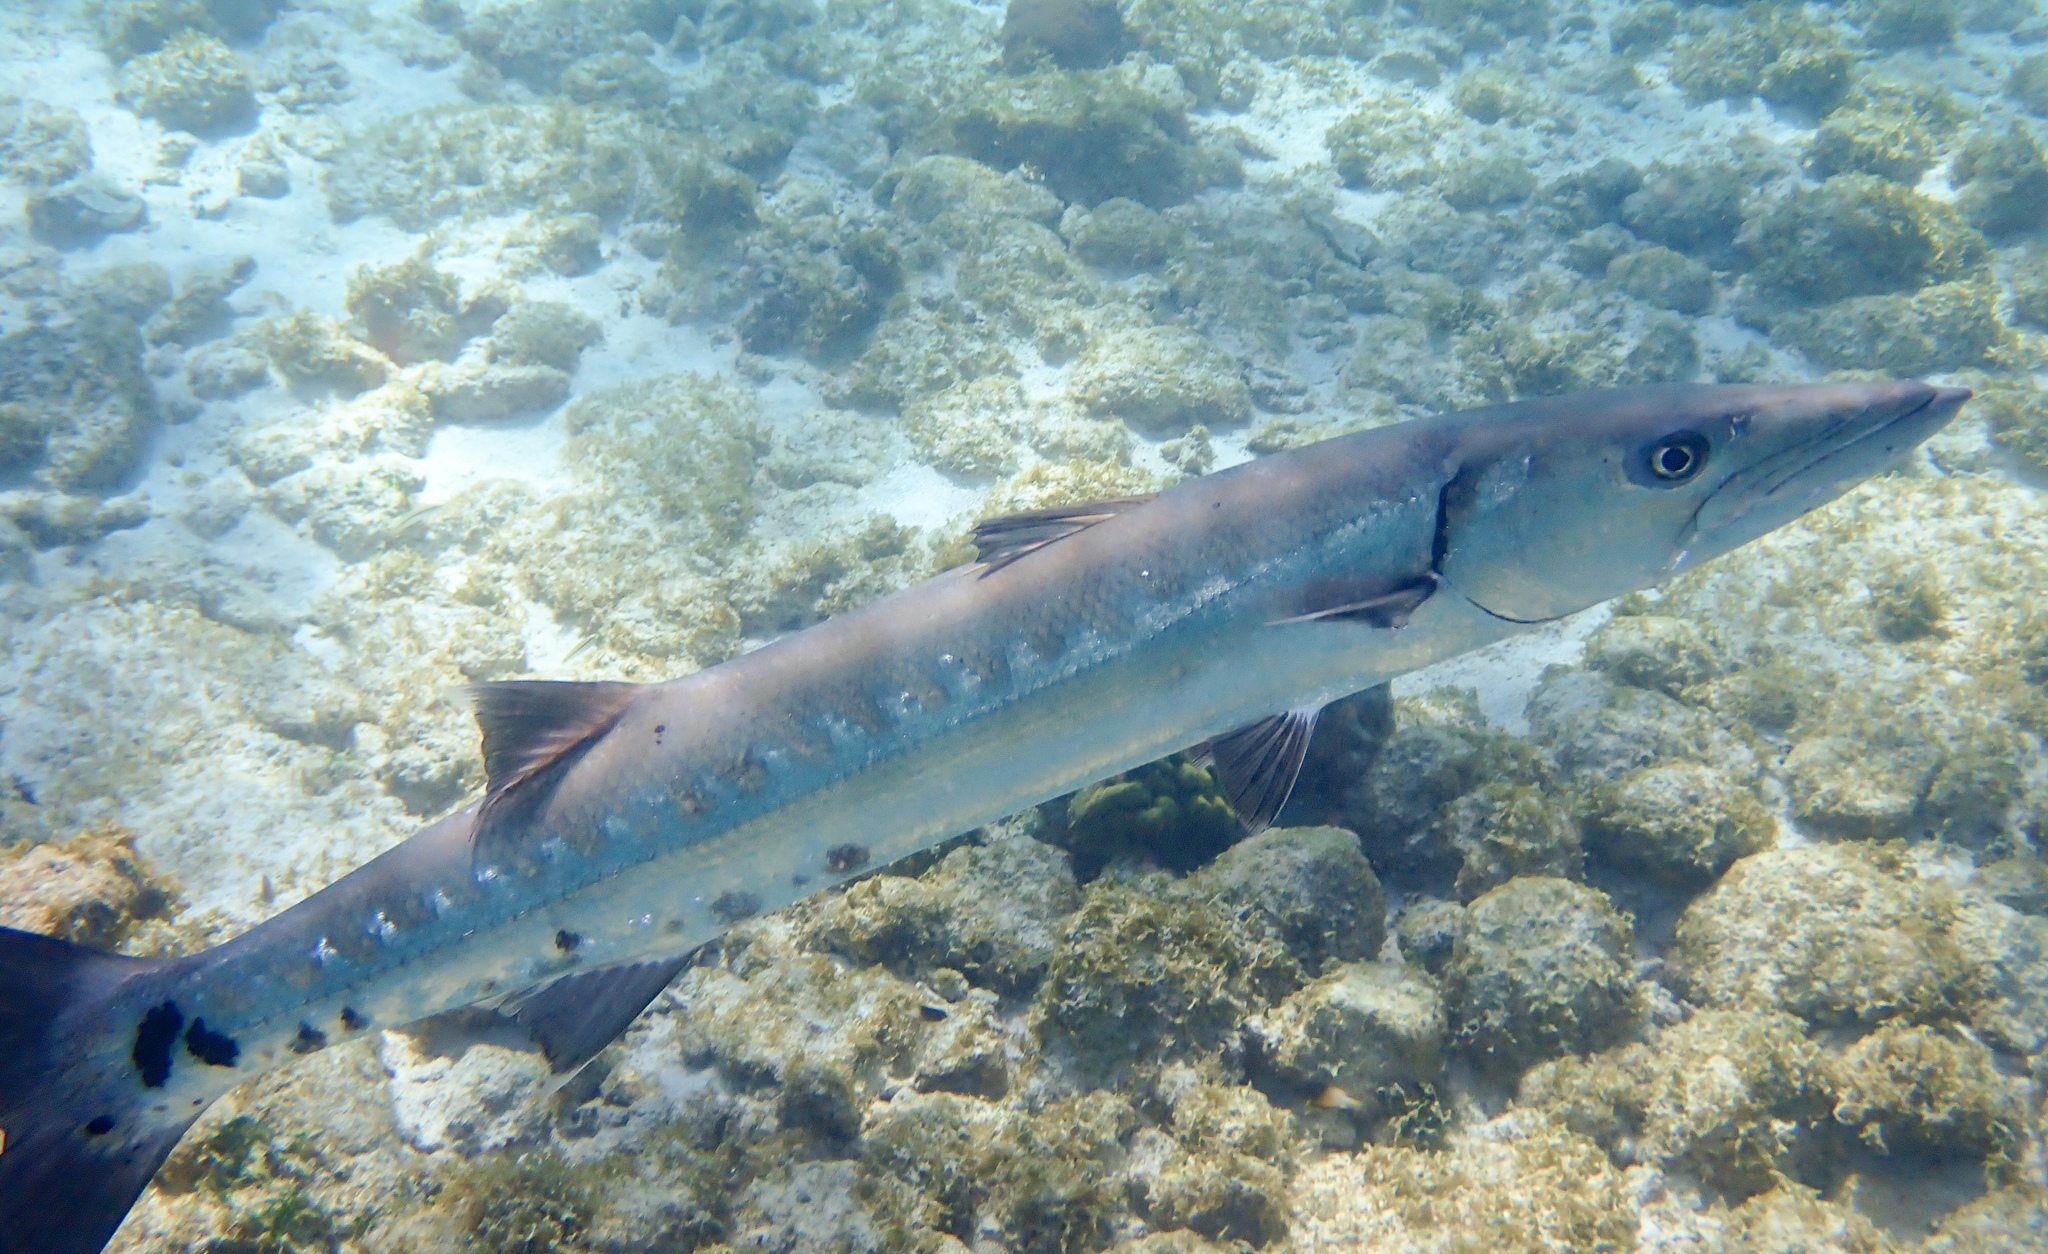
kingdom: Animalia
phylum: Chordata
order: Perciformes
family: Sphyraenidae
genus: Sphyraena
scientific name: Sphyraena barracuda
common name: Great barracuda
